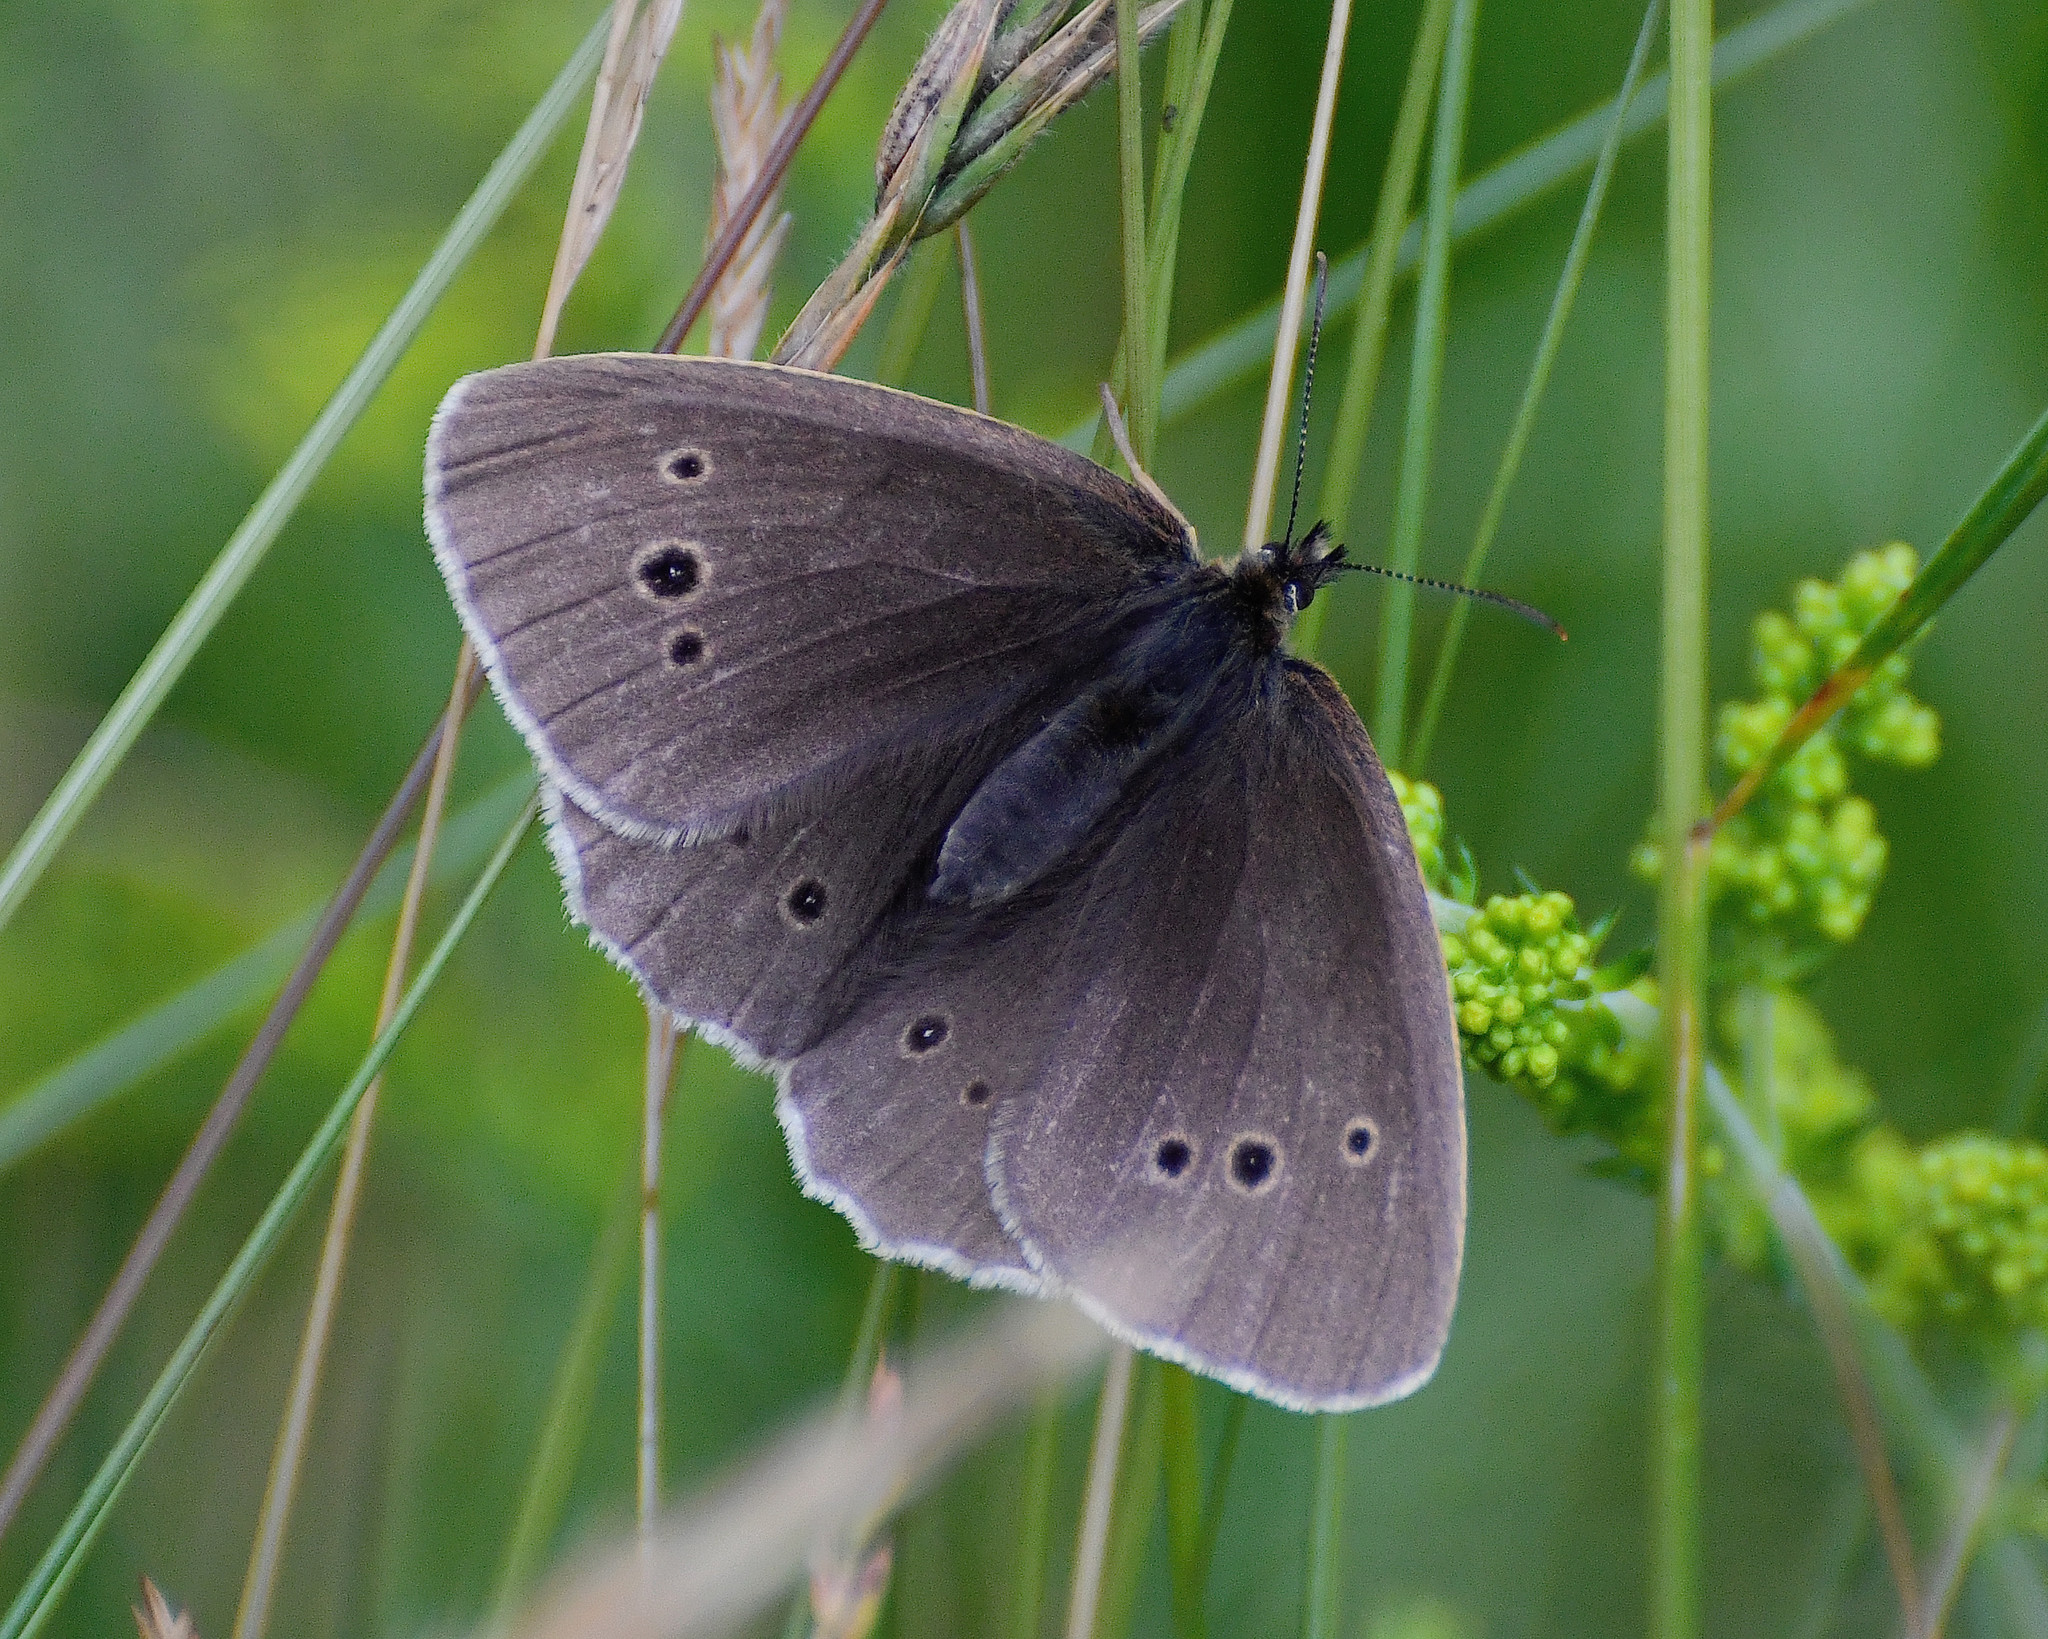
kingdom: Animalia
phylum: Arthropoda
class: Insecta
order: Lepidoptera
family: Nymphalidae
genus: Aphantopus
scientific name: Aphantopus hyperantus
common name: Ringlet
